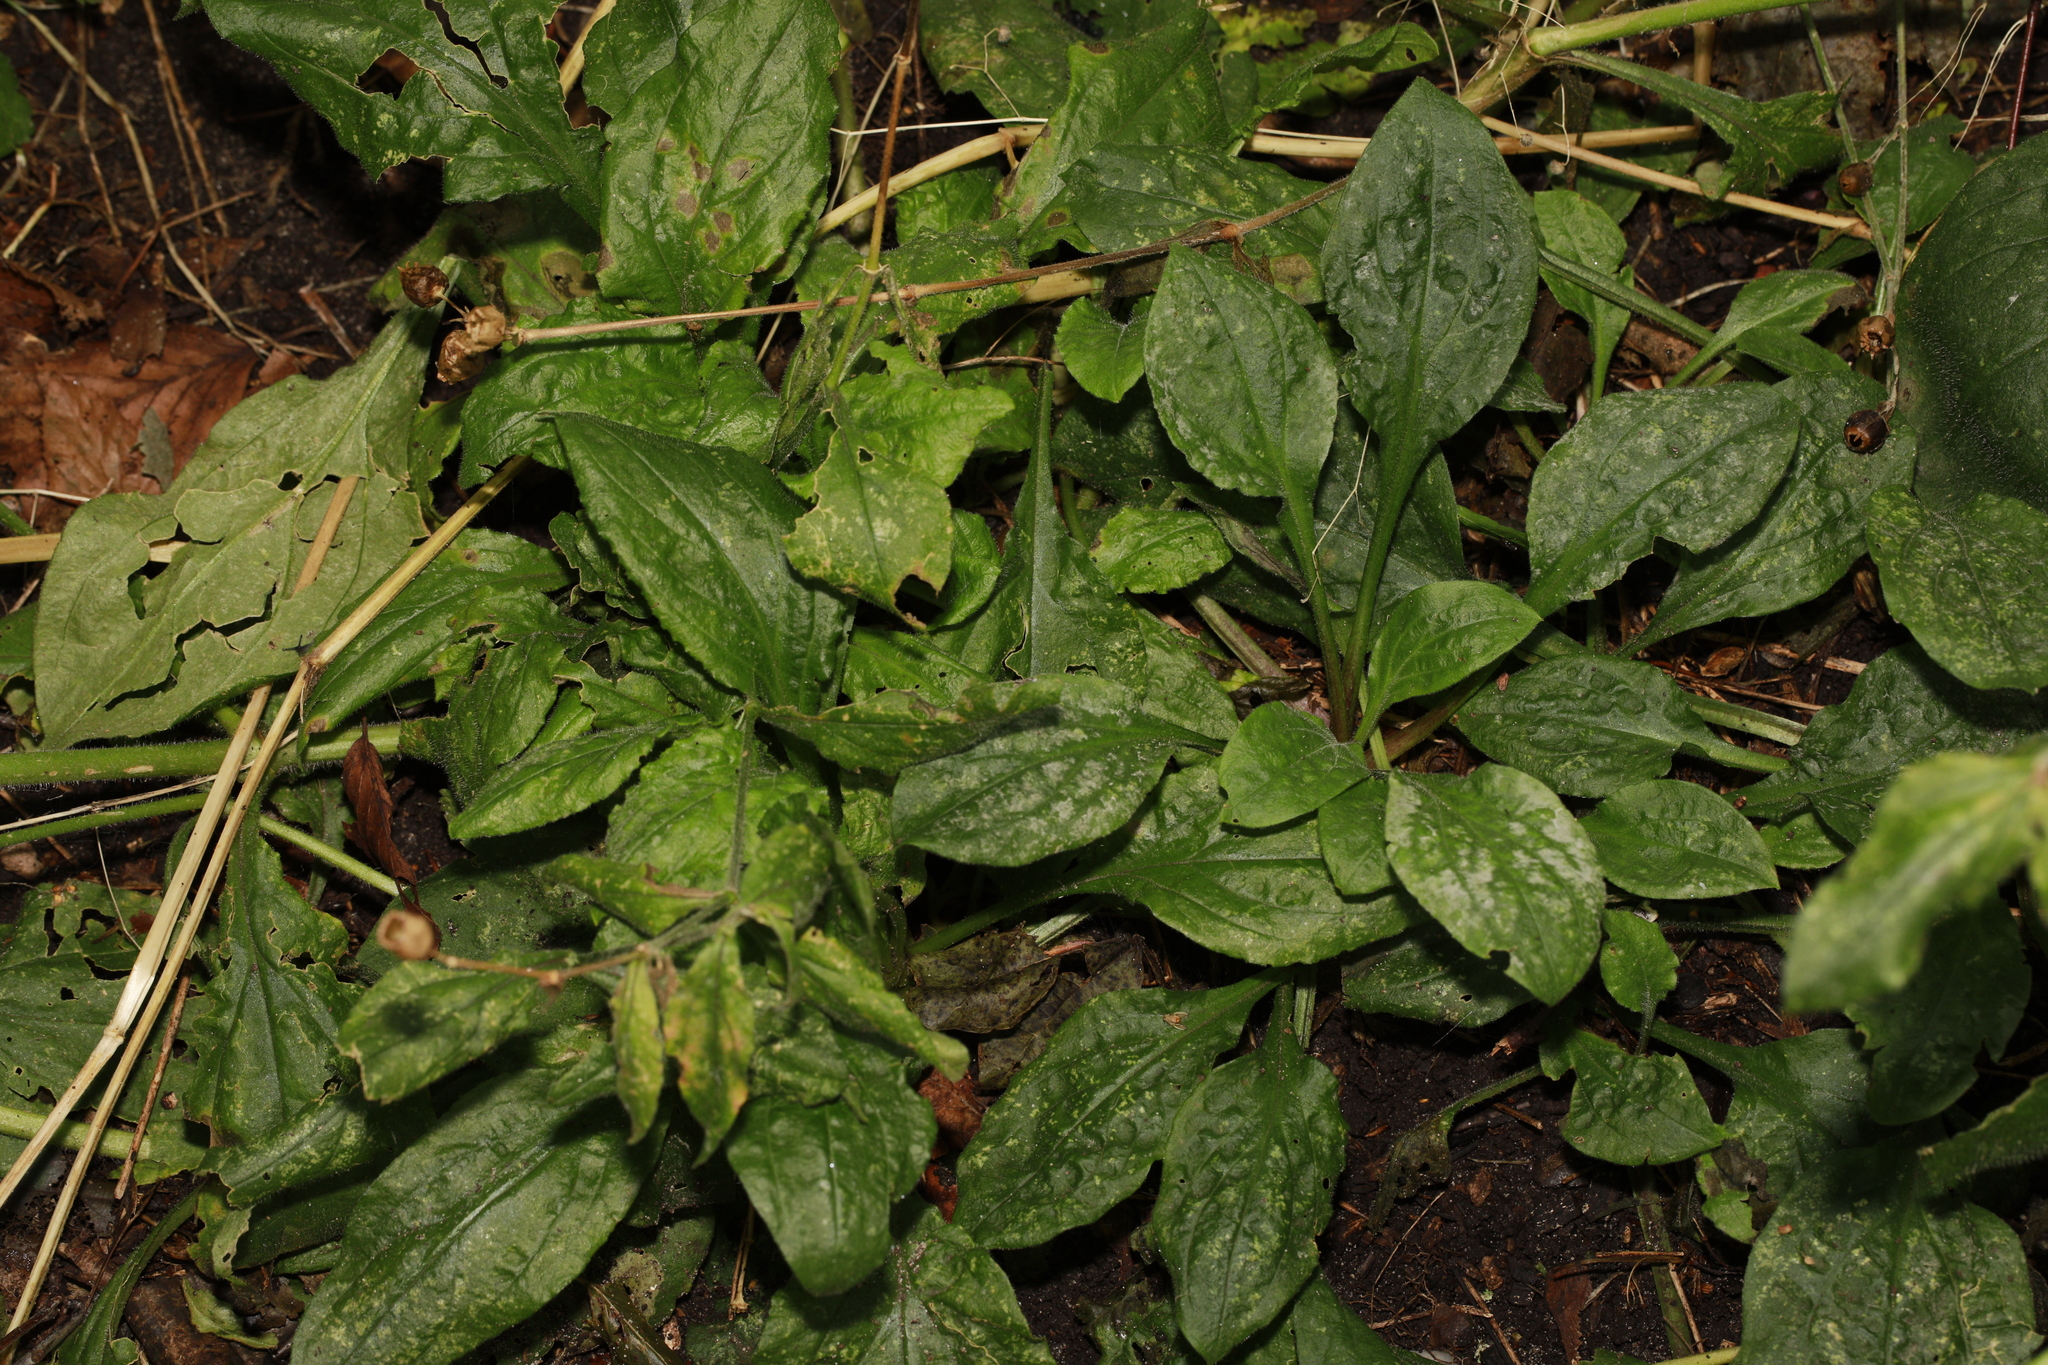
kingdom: Plantae
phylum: Tracheophyta
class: Magnoliopsida
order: Caryophyllales
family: Caryophyllaceae
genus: Silene
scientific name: Silene dioica
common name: Red campion
